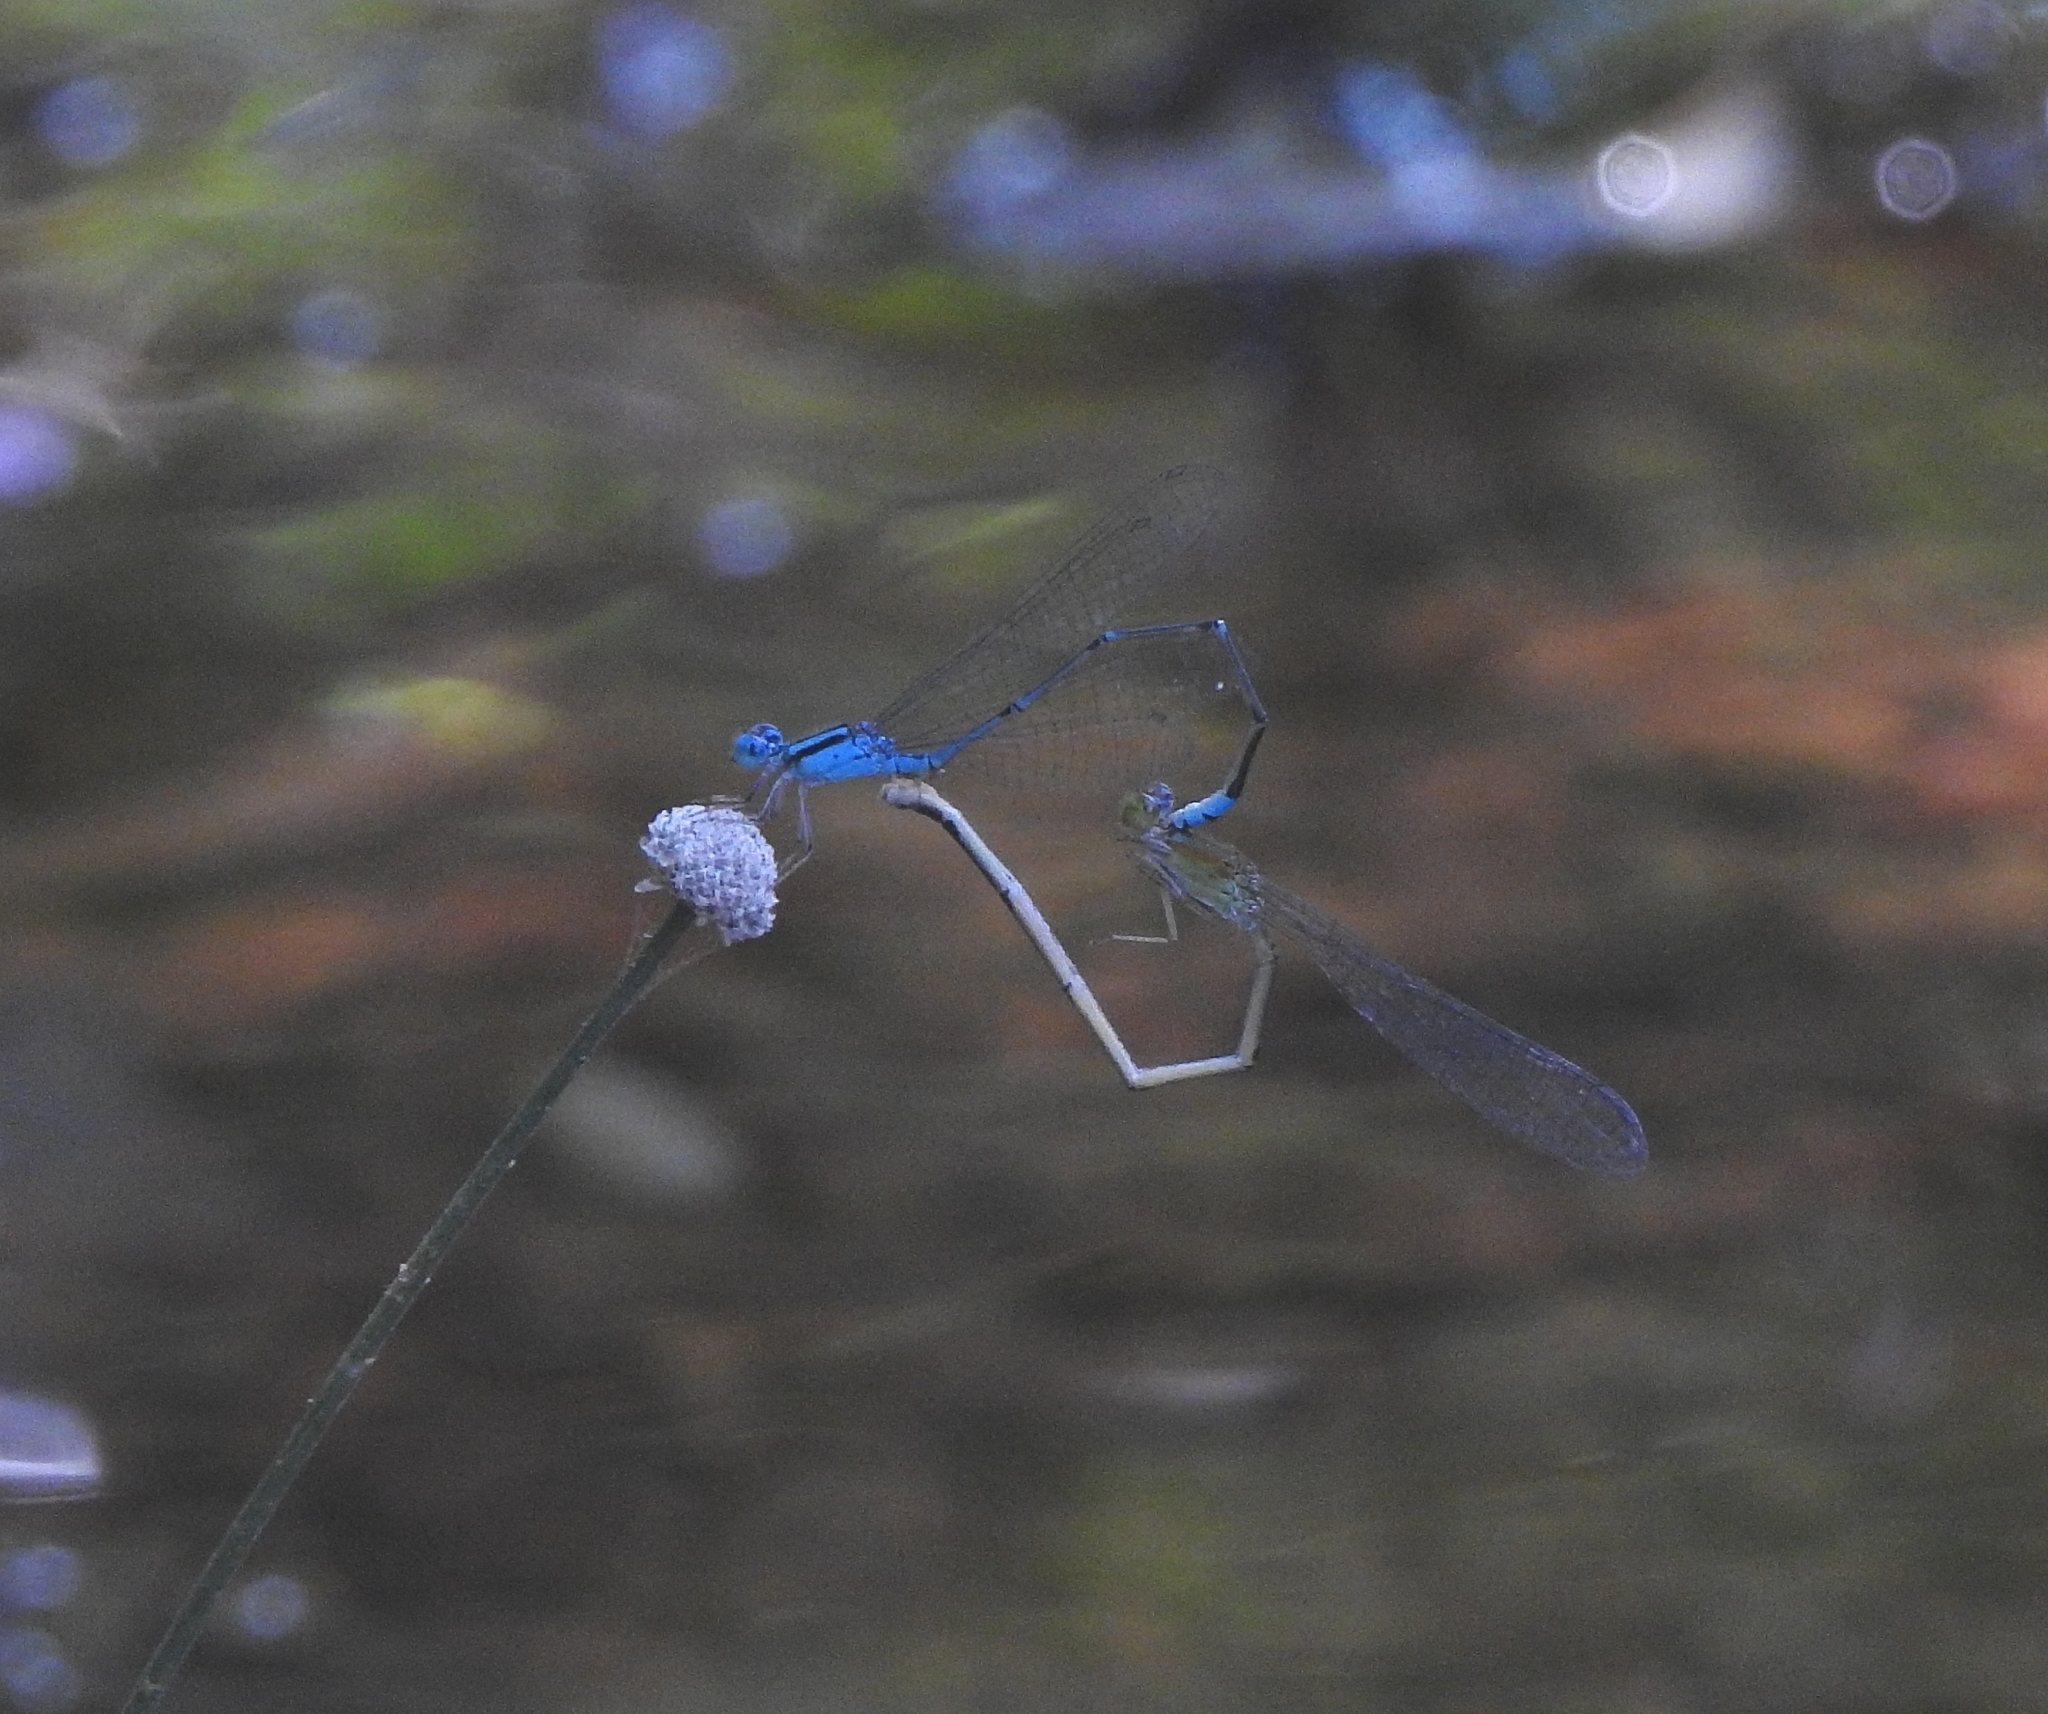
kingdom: Animalia
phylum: Arthropoda
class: Insecta
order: Odonata
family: Coenagrionidae
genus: Pseudagrion
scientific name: Pseudagrion microcephalum
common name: Blue riverdamsel
